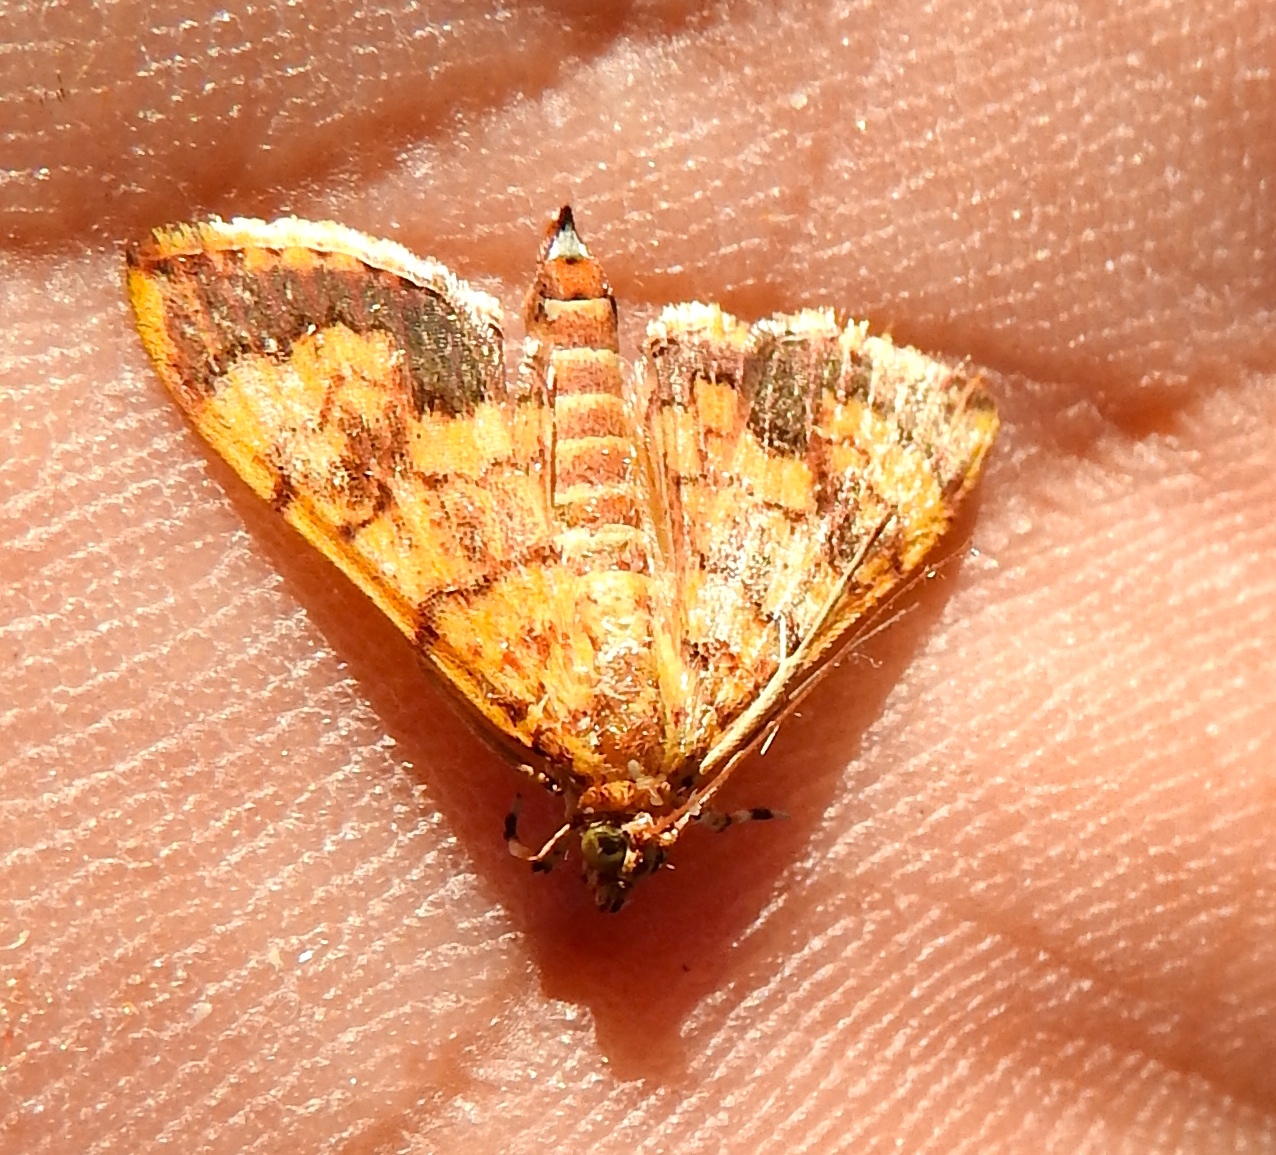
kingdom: Animalia
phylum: Arthropoda
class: Insecta
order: Lepidoptera
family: Crambidae
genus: Portentomorpha
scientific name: Portentomorpha xanthialis
